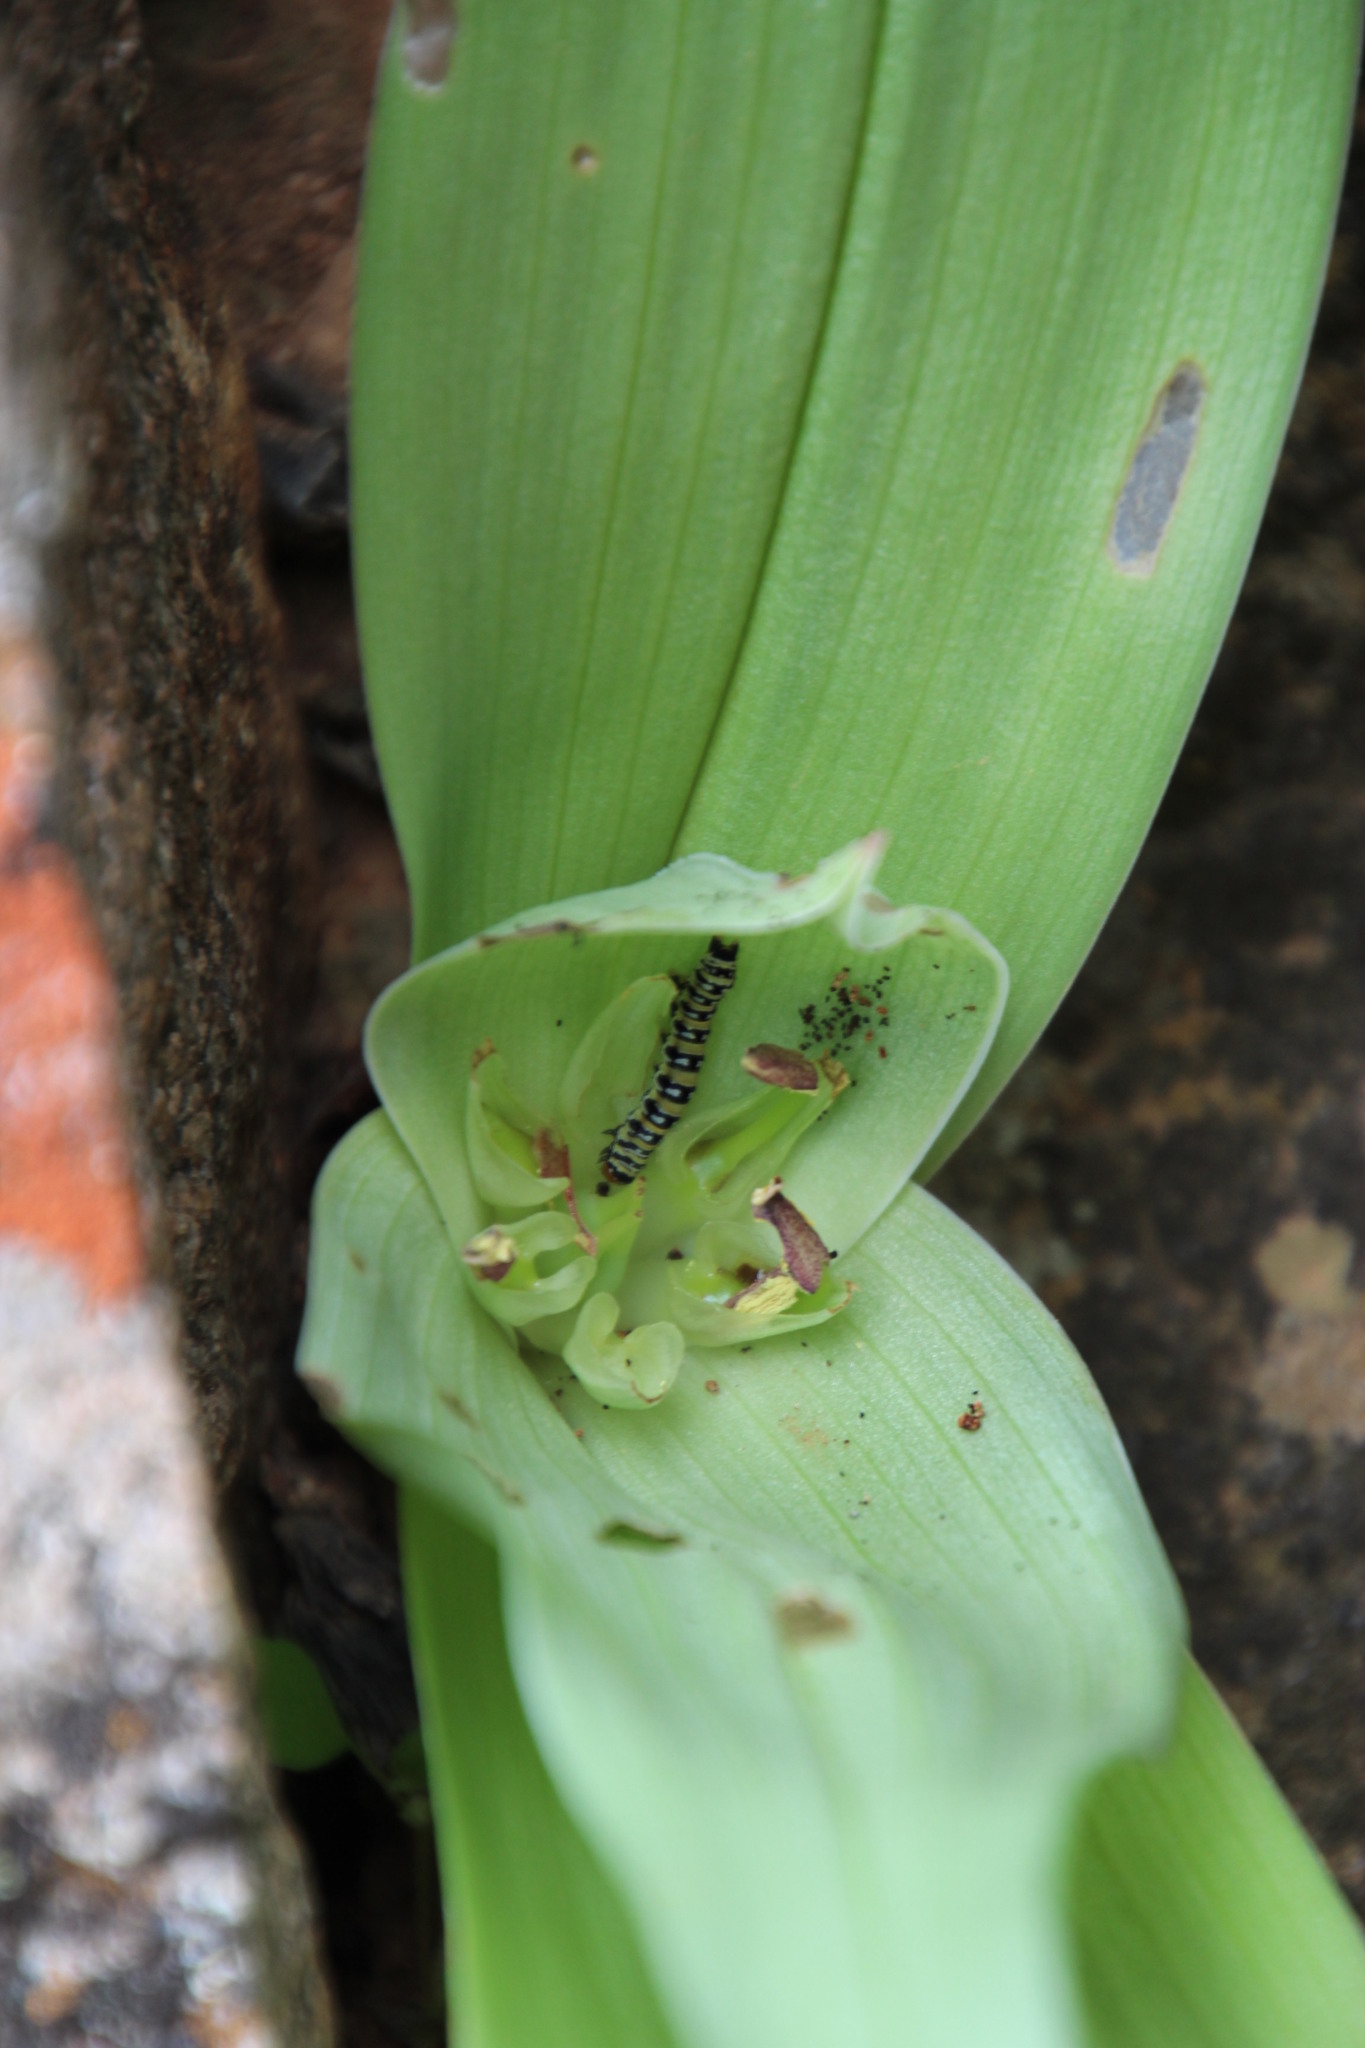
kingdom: Animalia
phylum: Arthropoda
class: Insecta
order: Lepidoptera
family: Noctuidae
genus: Klugeana
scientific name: Klugeana philoxalis
